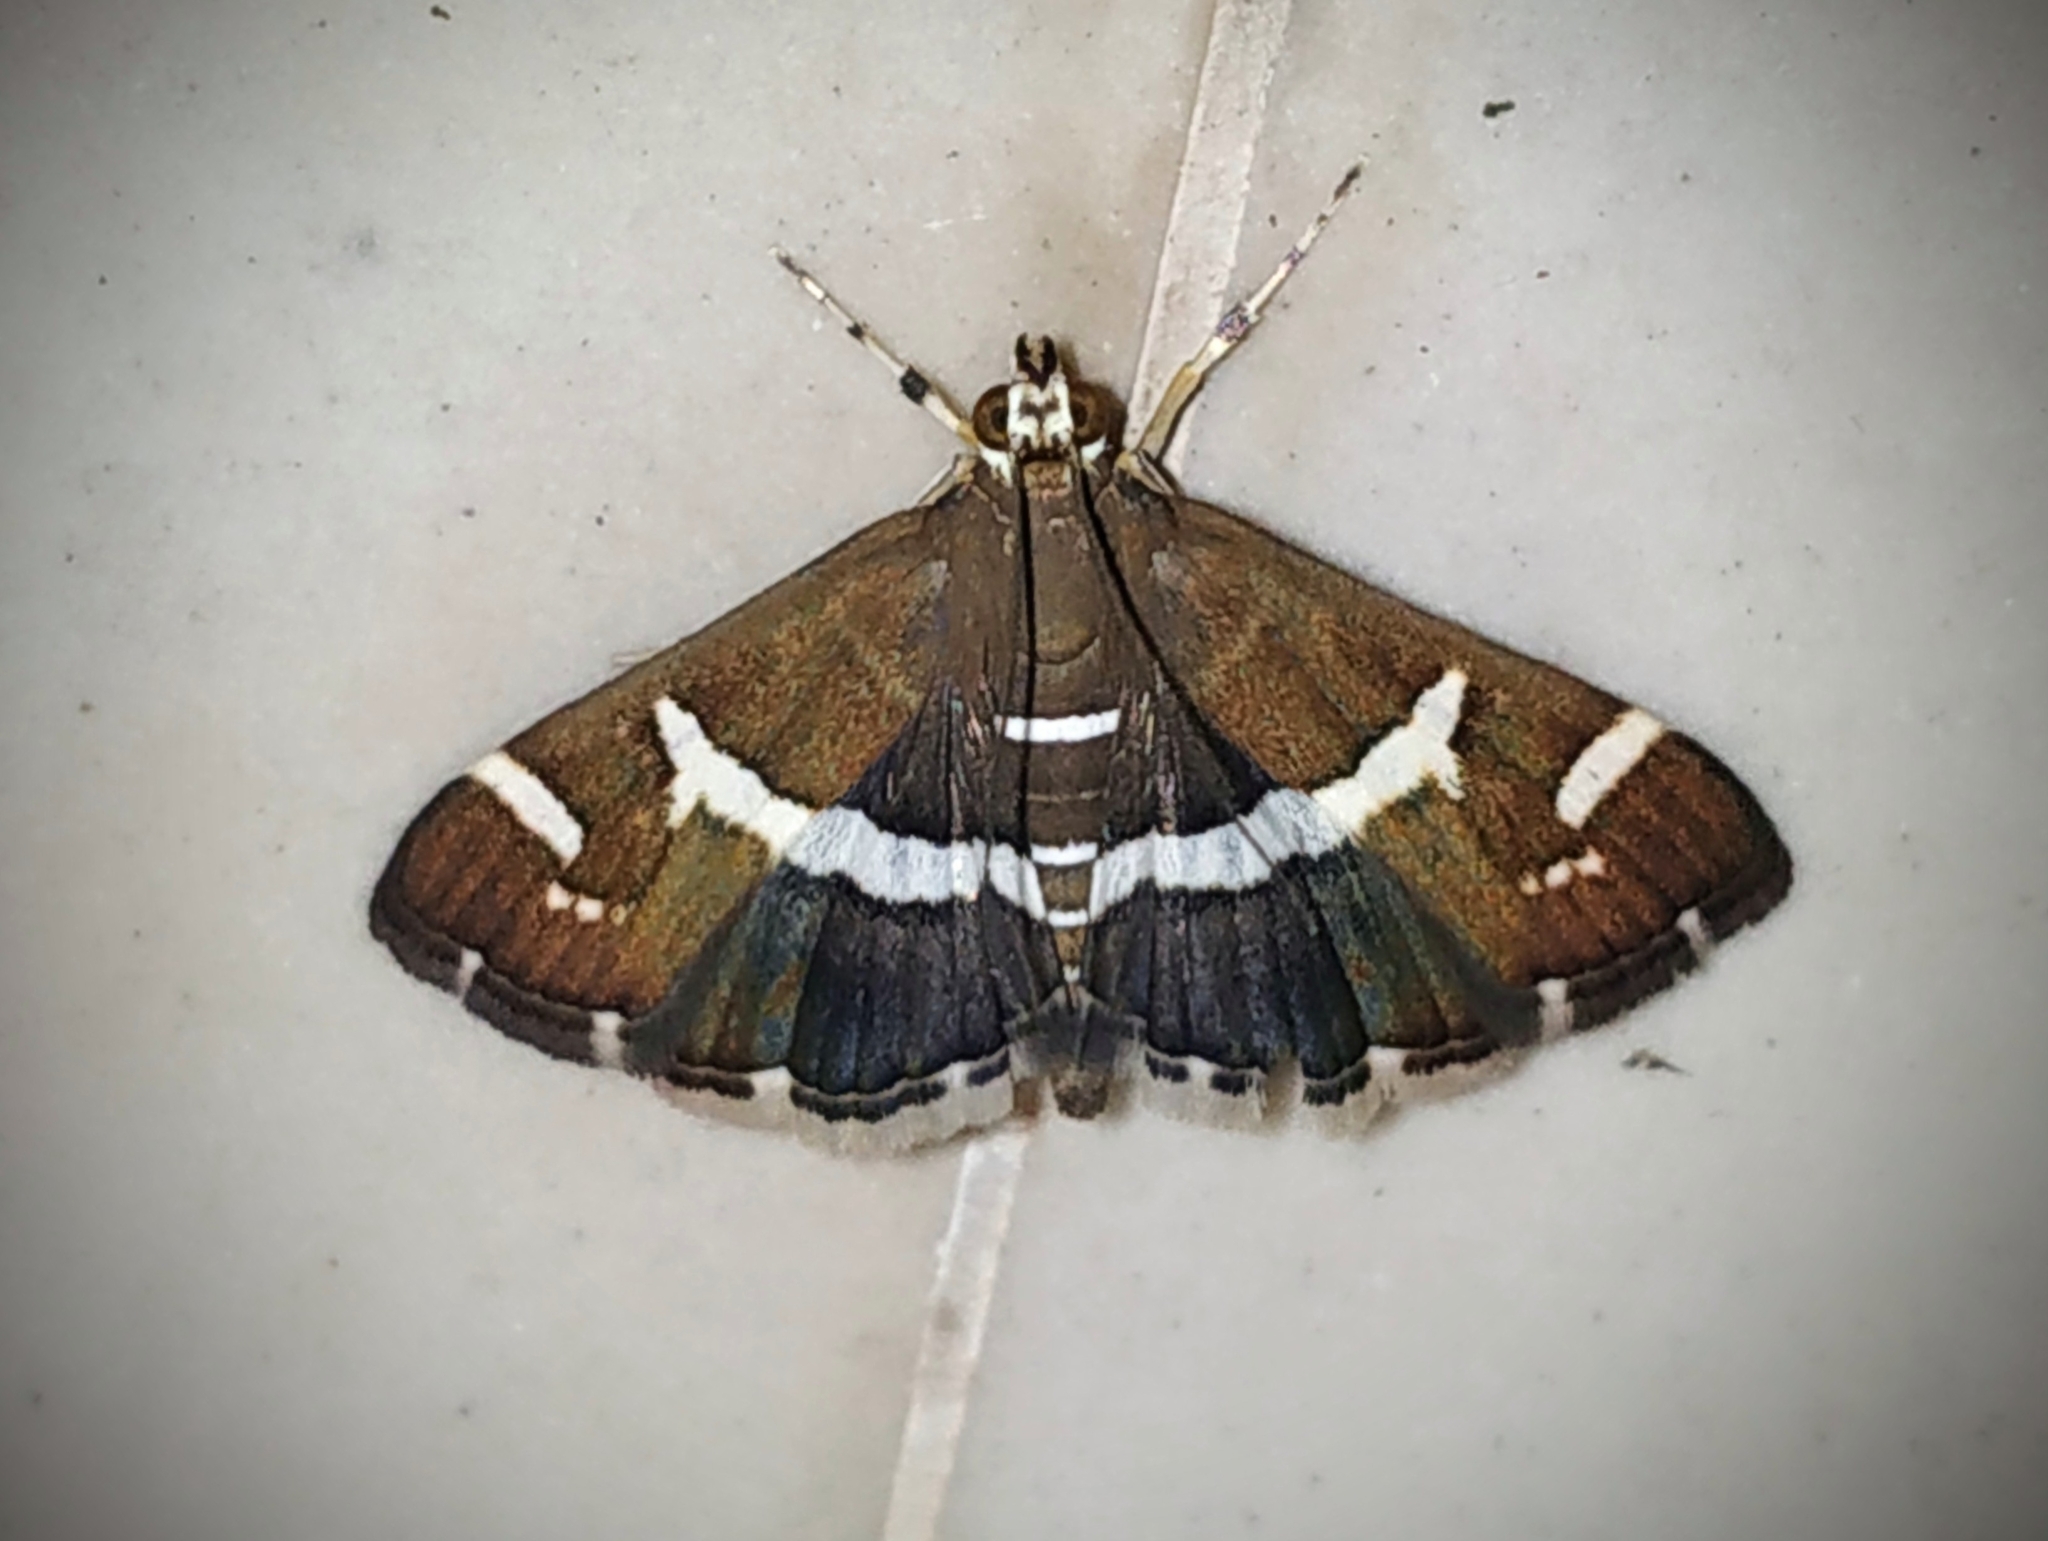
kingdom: Animalia
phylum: Arthropoda
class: Insecta
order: Lepidoptera
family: Crambidae
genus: Spoladea
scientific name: Spoladea recurvalis
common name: Beet webworm moth
